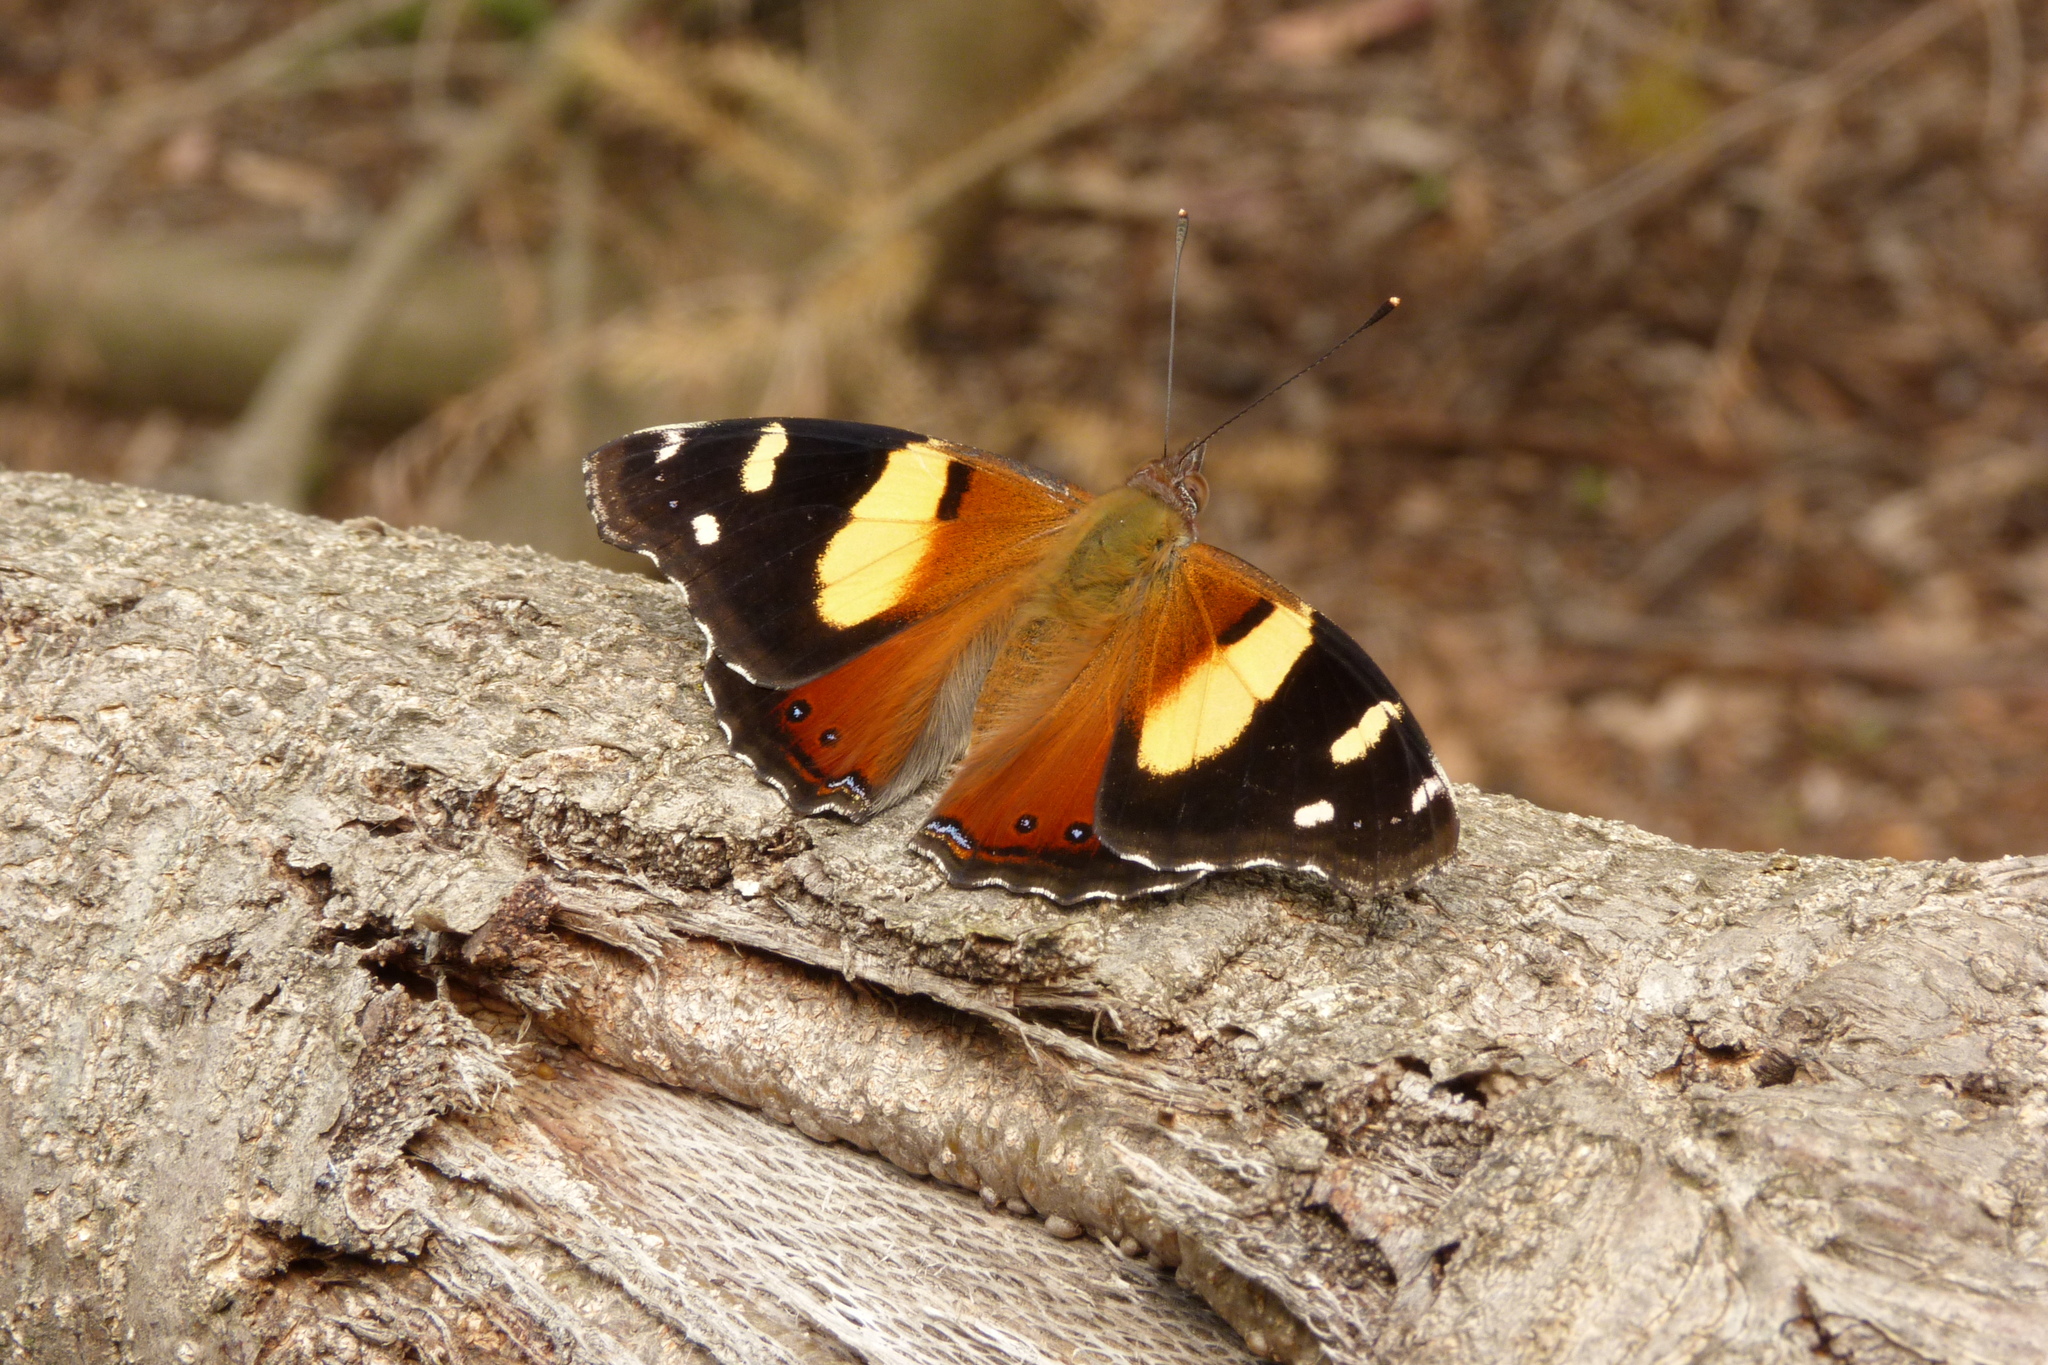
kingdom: Animalia
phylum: Arthropoda
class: Insecta
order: Lepidoptera
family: Nymphalidae
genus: Vanessa
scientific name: Vanessa itea
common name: Yellow admiral
